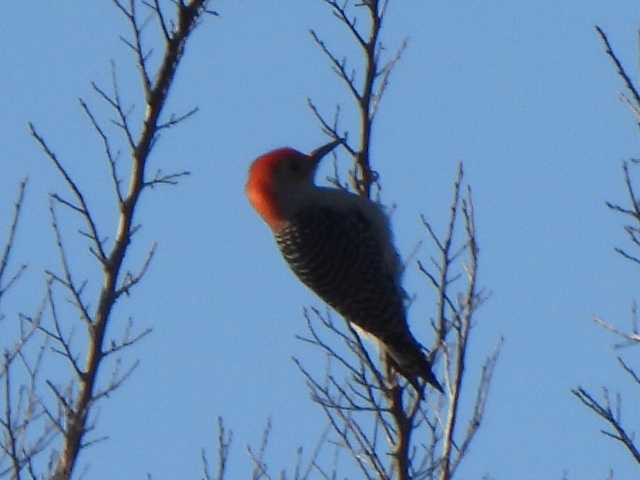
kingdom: Animalia
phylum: Chordata
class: Aves
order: Piciformes
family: Picidae
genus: Melanerpes
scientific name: Melanerpes carolinus
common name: Red-bellied woodpecker
